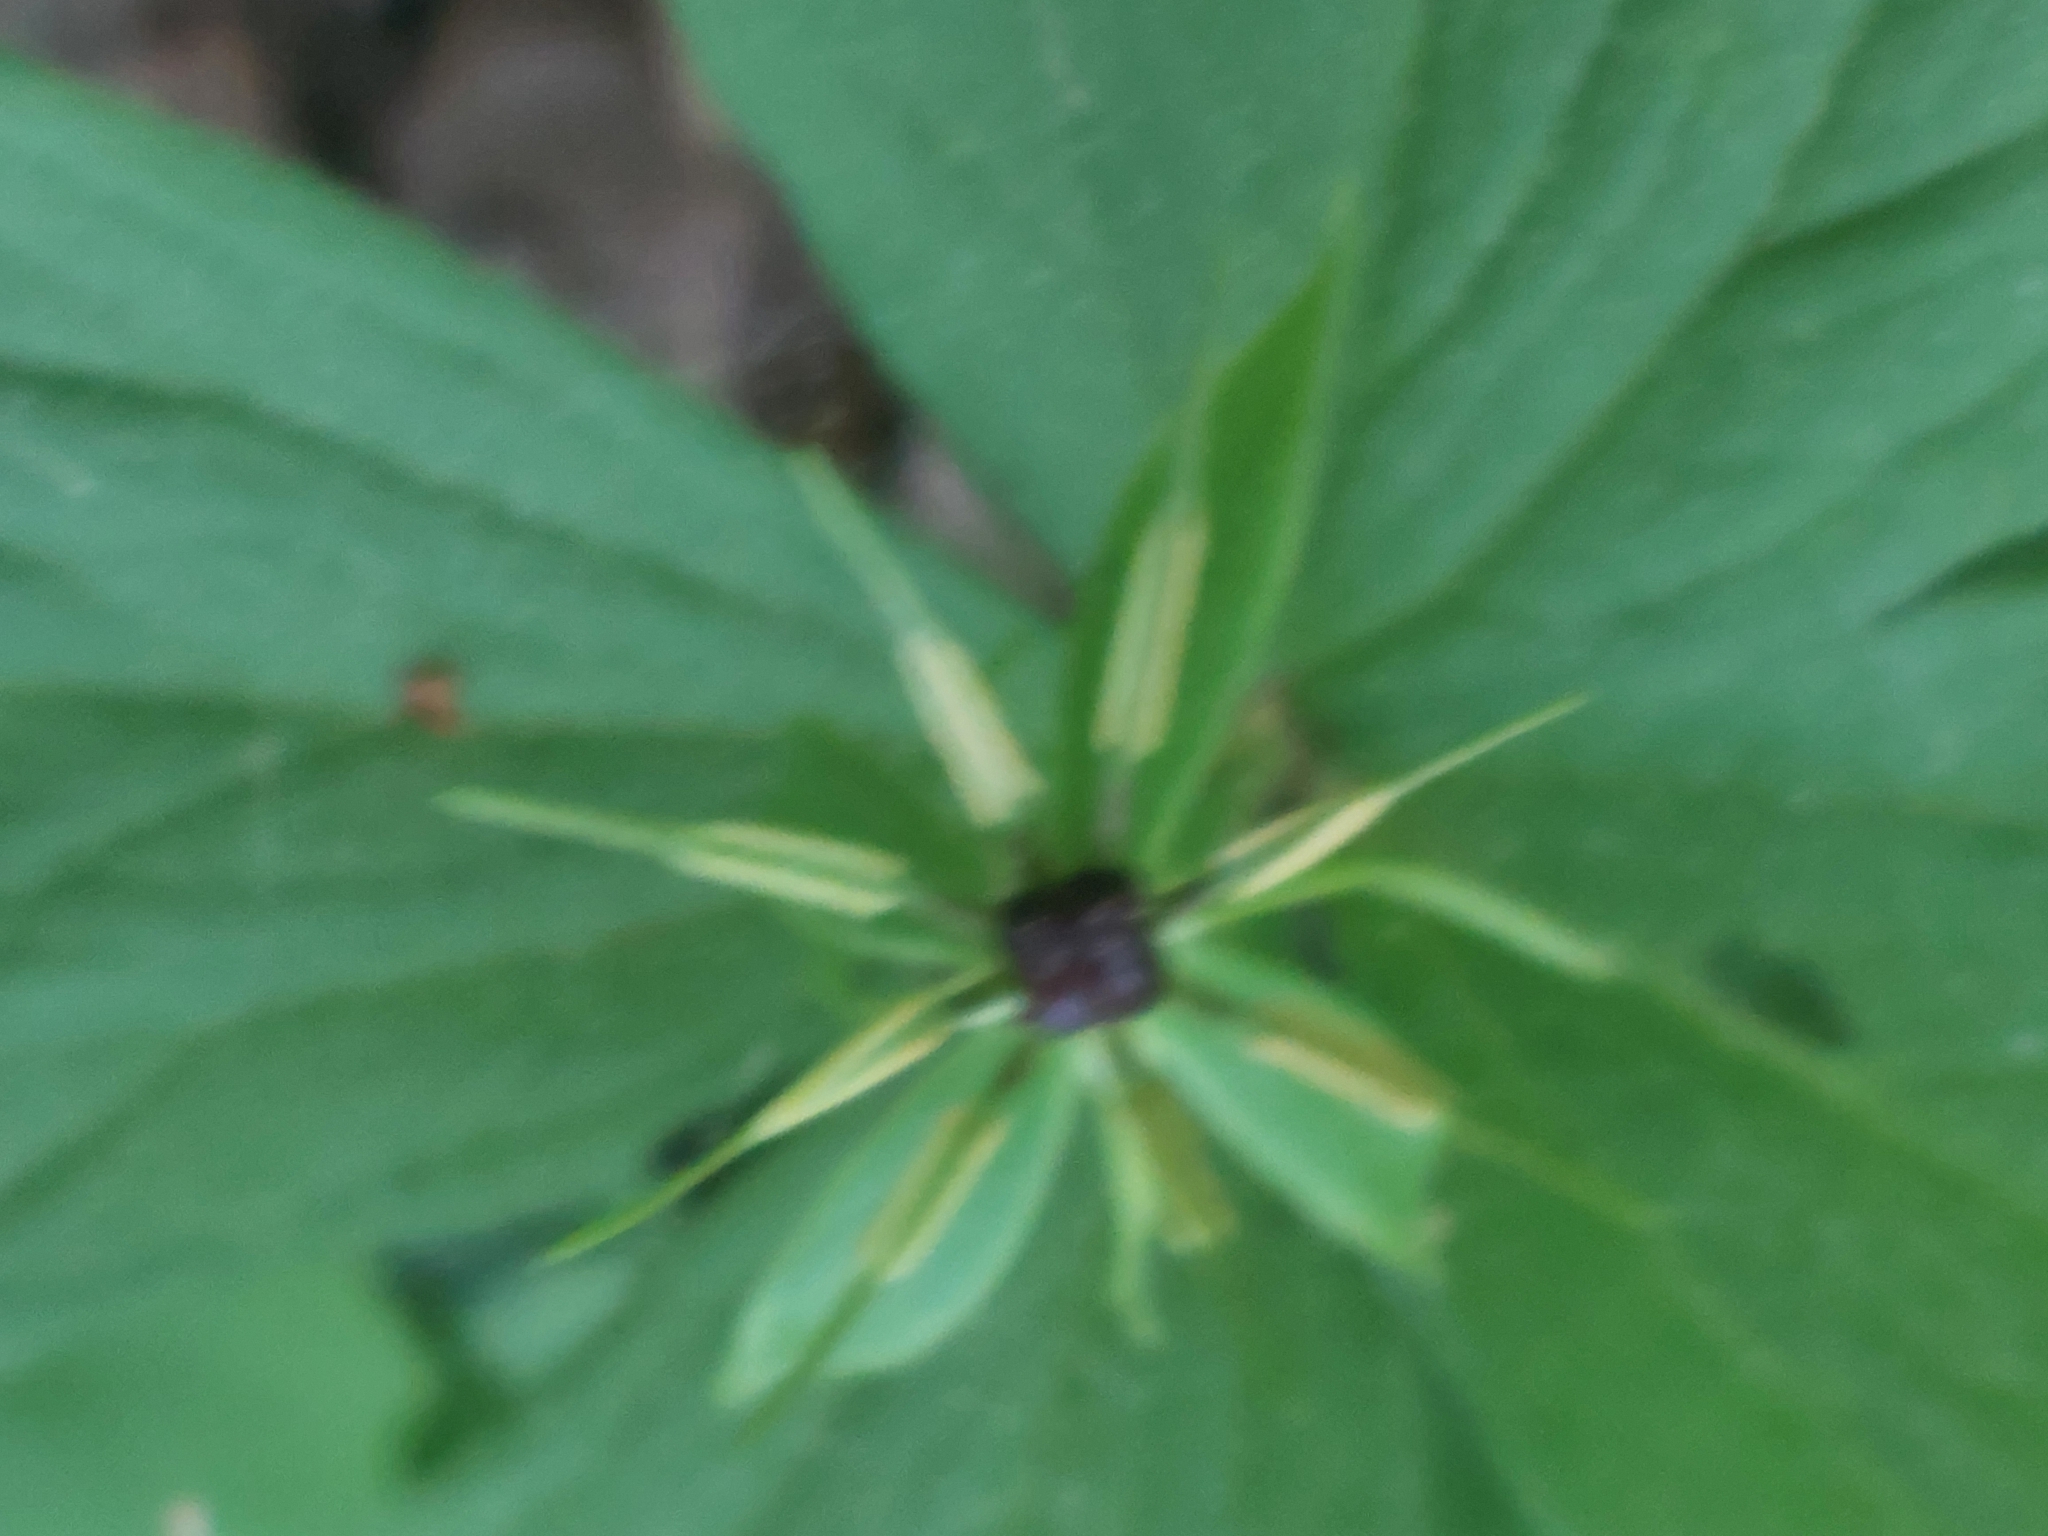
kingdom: Plantae
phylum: Tracheophyta
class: Liliopsida
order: Liliales
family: Melanthiaceae
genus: Paris
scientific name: Paris quadrifolia
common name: Herb-paris
